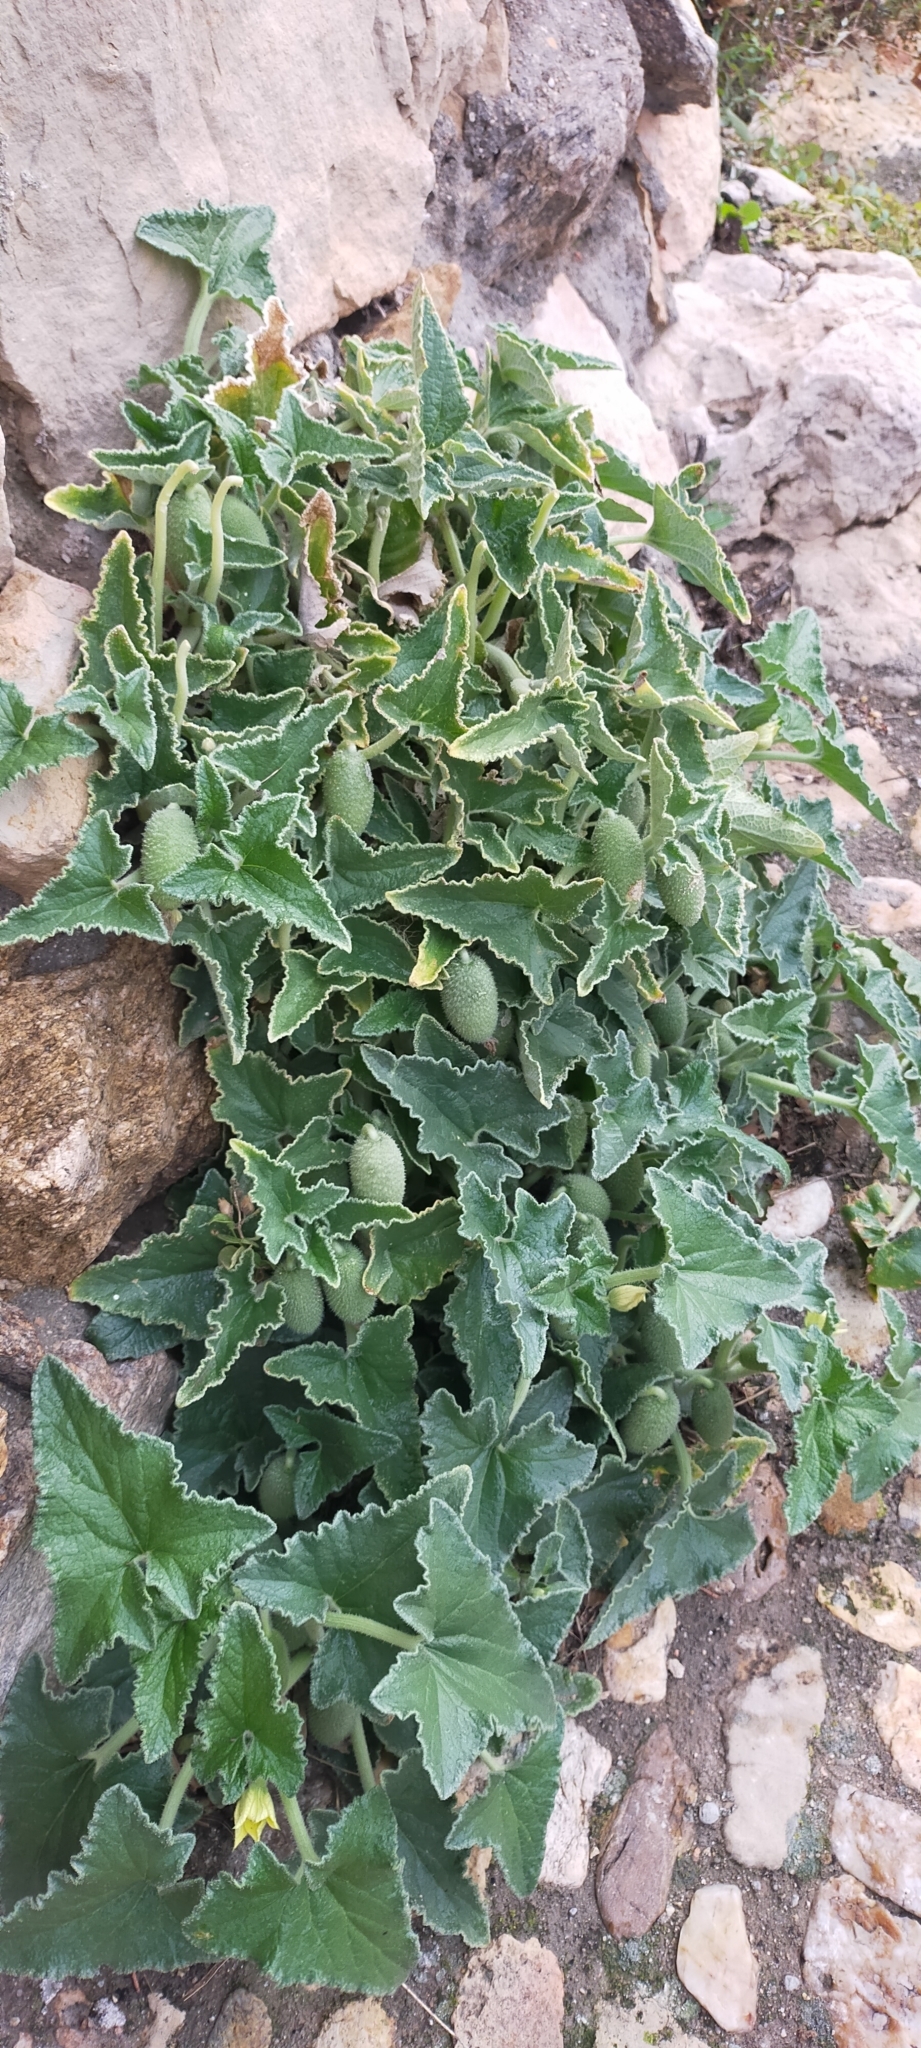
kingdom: Plantae
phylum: Tracheophyta
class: Magnoliopsida
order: Cucurbitales
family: Cucurbitaceae
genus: Ecballium
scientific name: Ecballium elaterium
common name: Squirting cucumber
